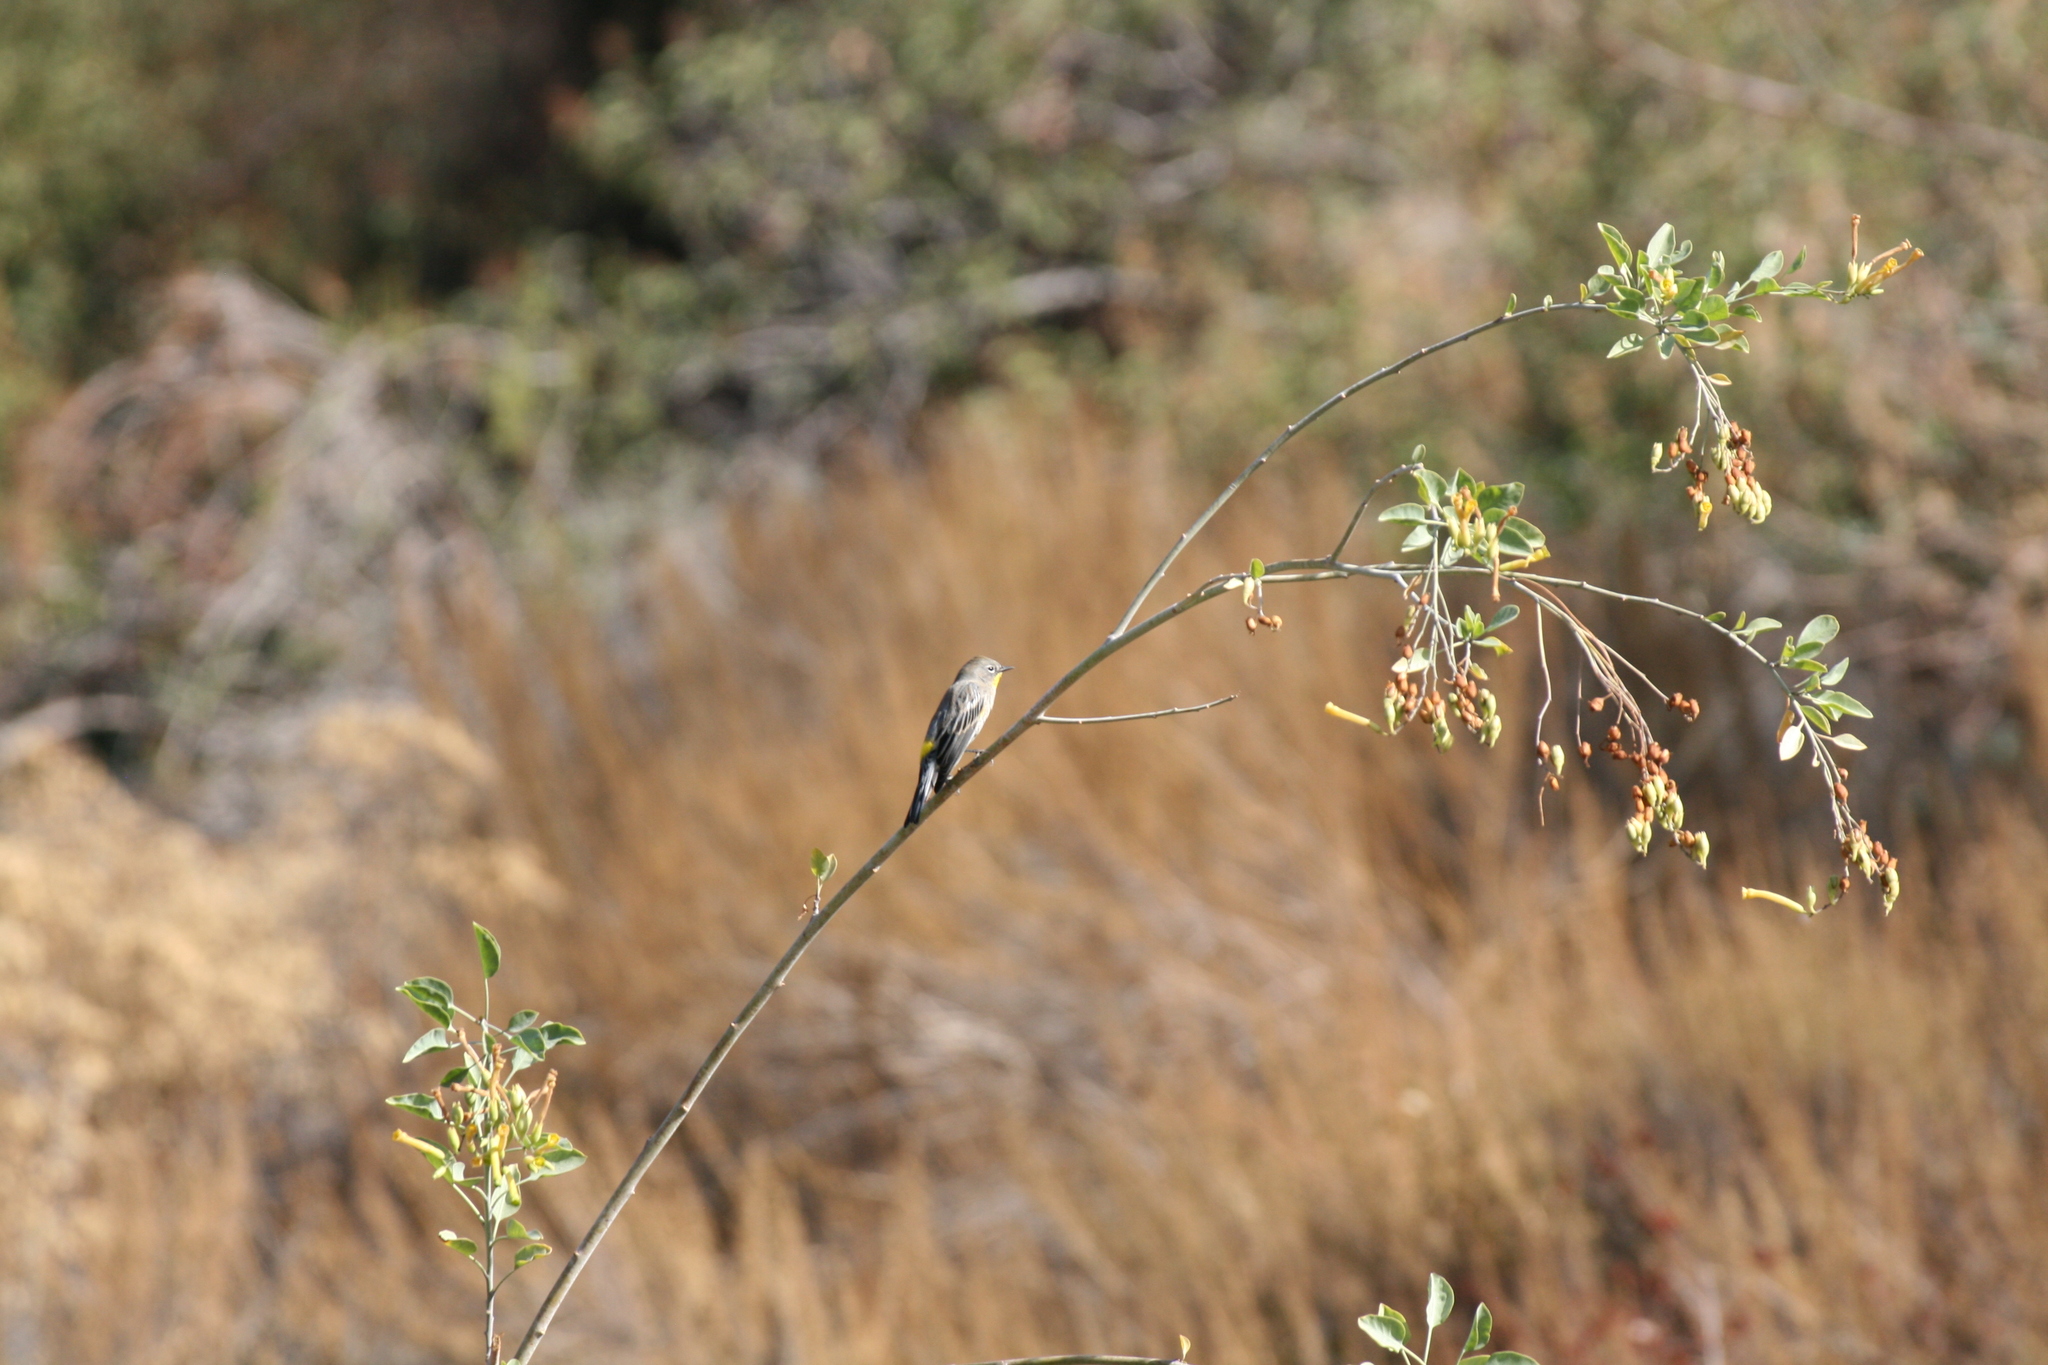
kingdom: Animalia
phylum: Chordata
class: Aves
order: Passeriformes
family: Parulidae
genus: Setophaga
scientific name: Setophaga coronata
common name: Myrtle warbler
